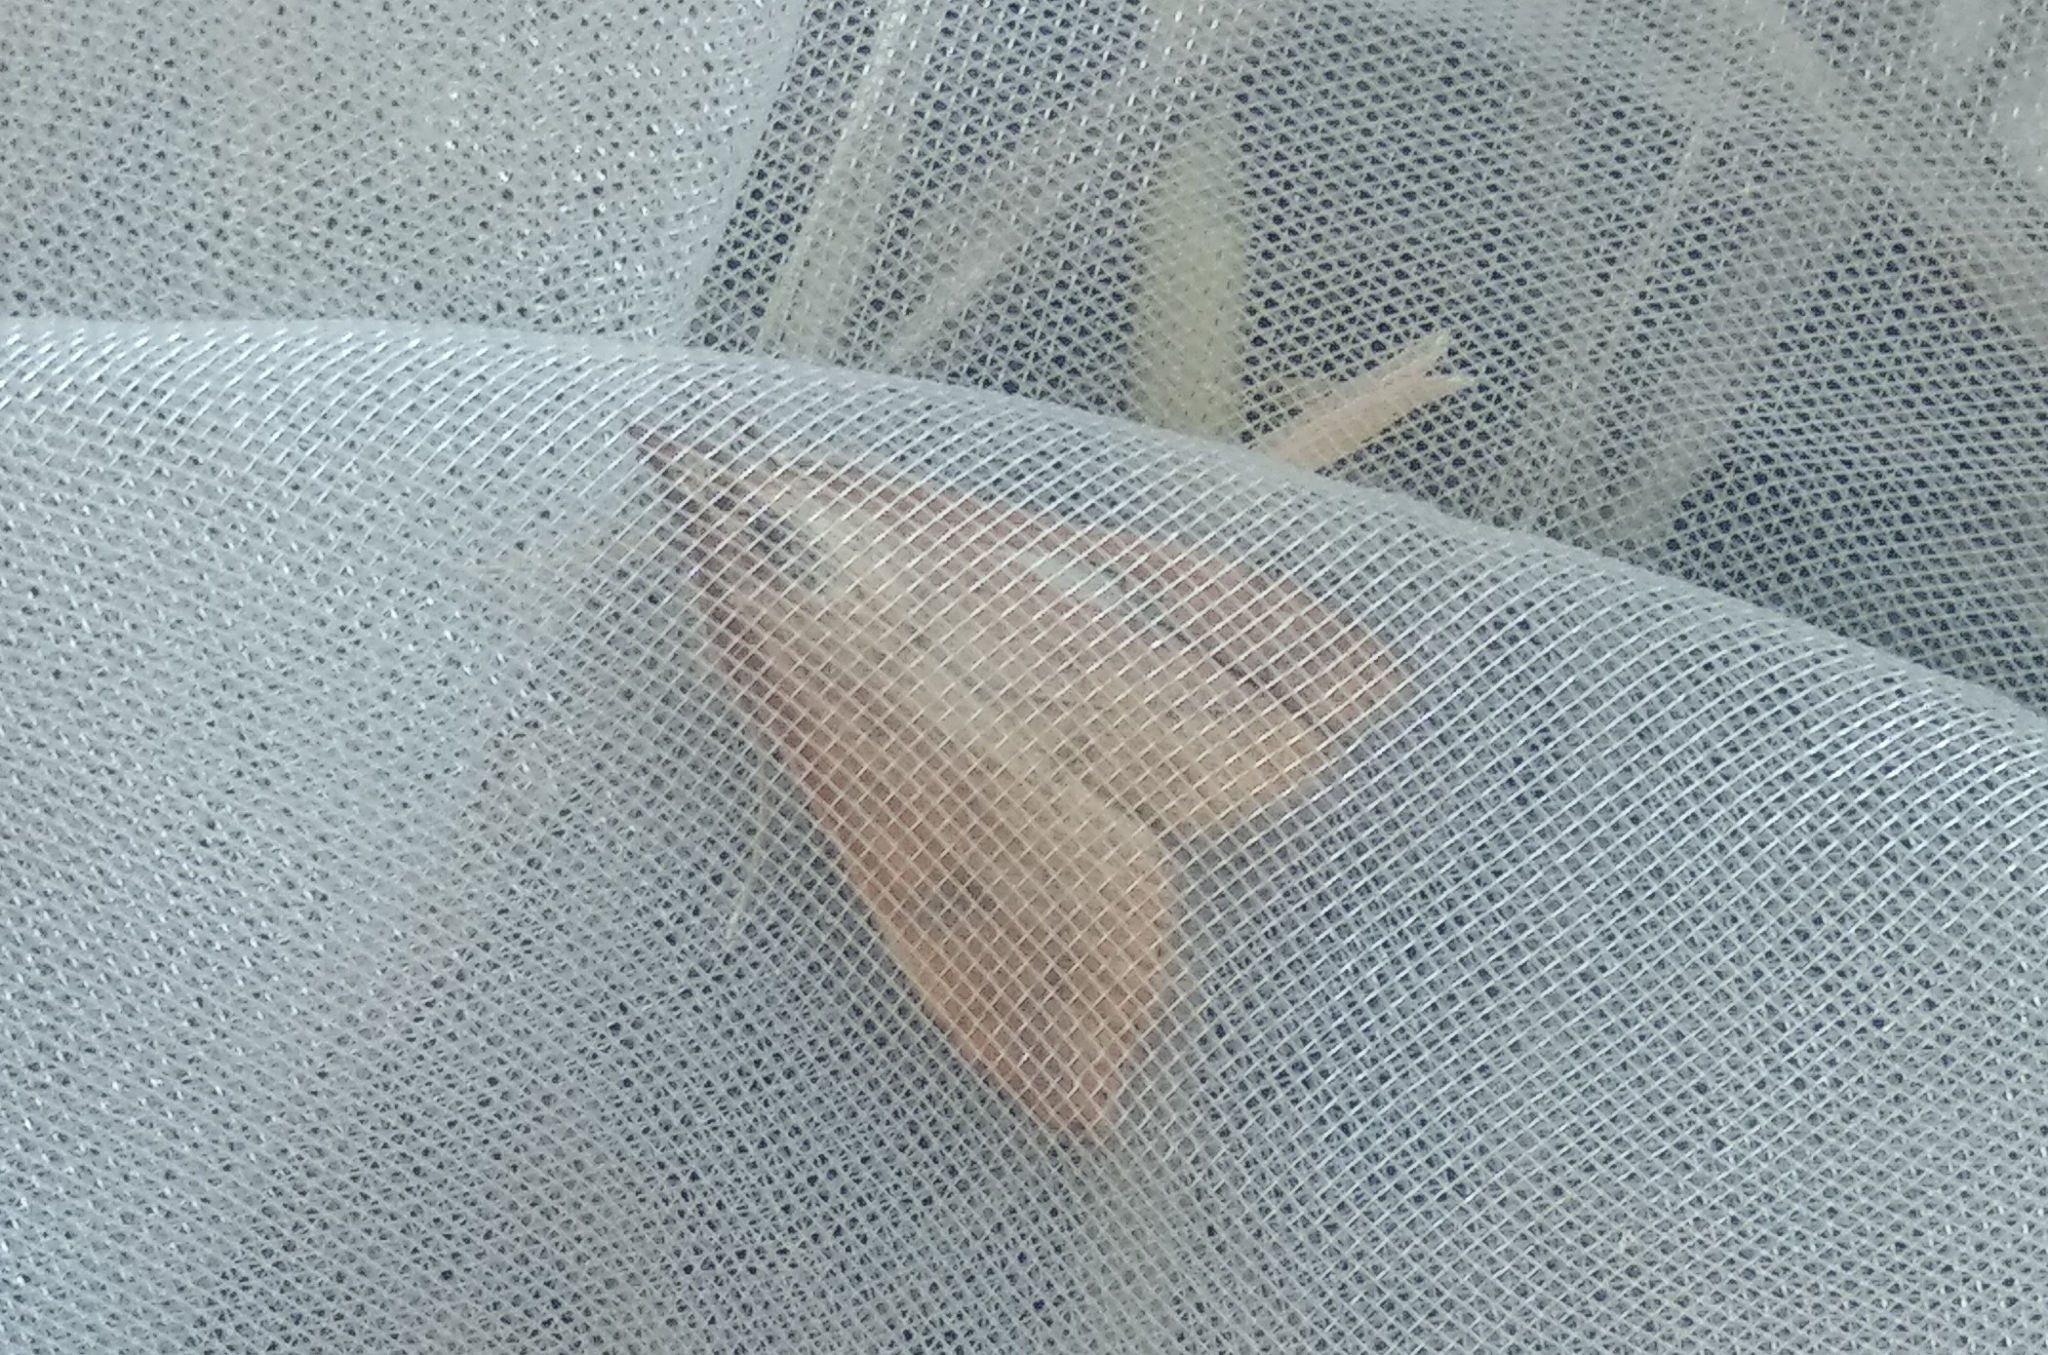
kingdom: Animalia
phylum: Arthropoda
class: Insecta
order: Lepidoptera
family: Crambidae
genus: Udea
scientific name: Udea ferrugalis
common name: Rusty dot
